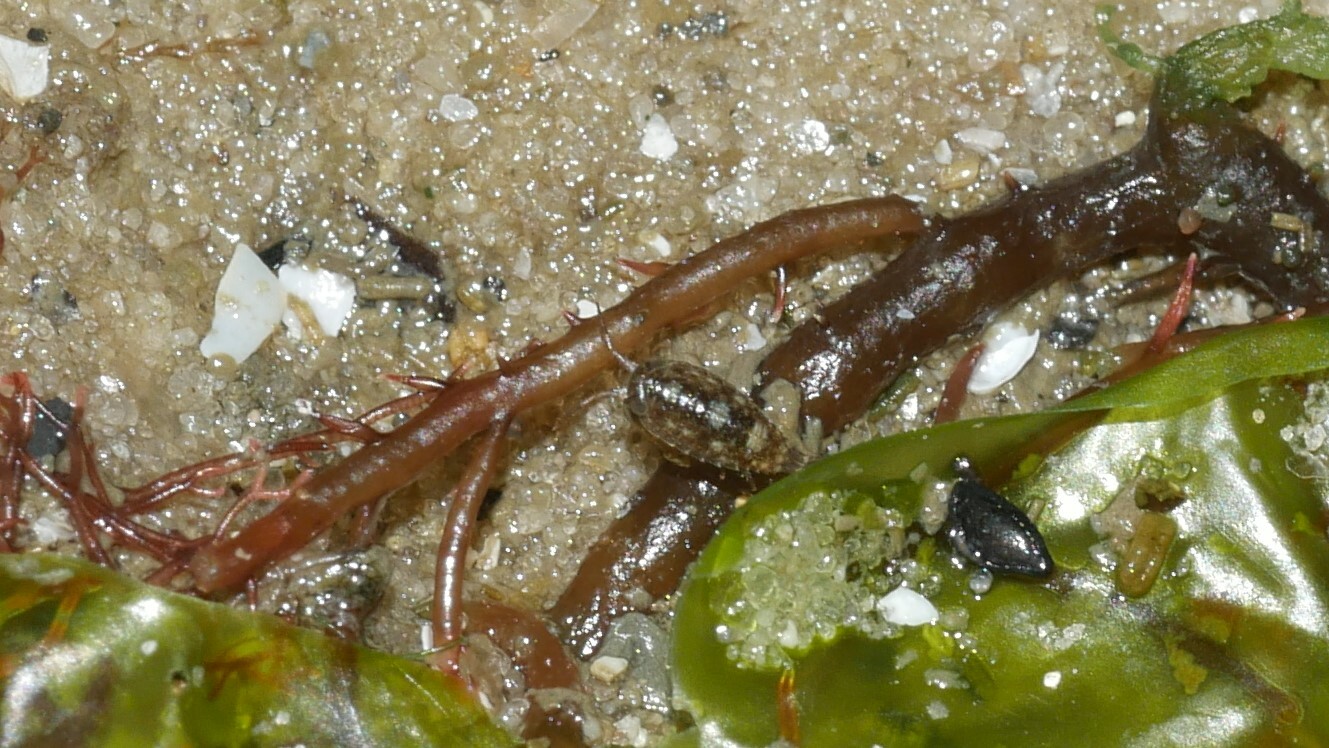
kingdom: Animalia
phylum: Arthropoda
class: Malacostraca
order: Isopoda
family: Ligiidae
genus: Ligia
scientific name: Ligia exotica
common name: Wharf roach
